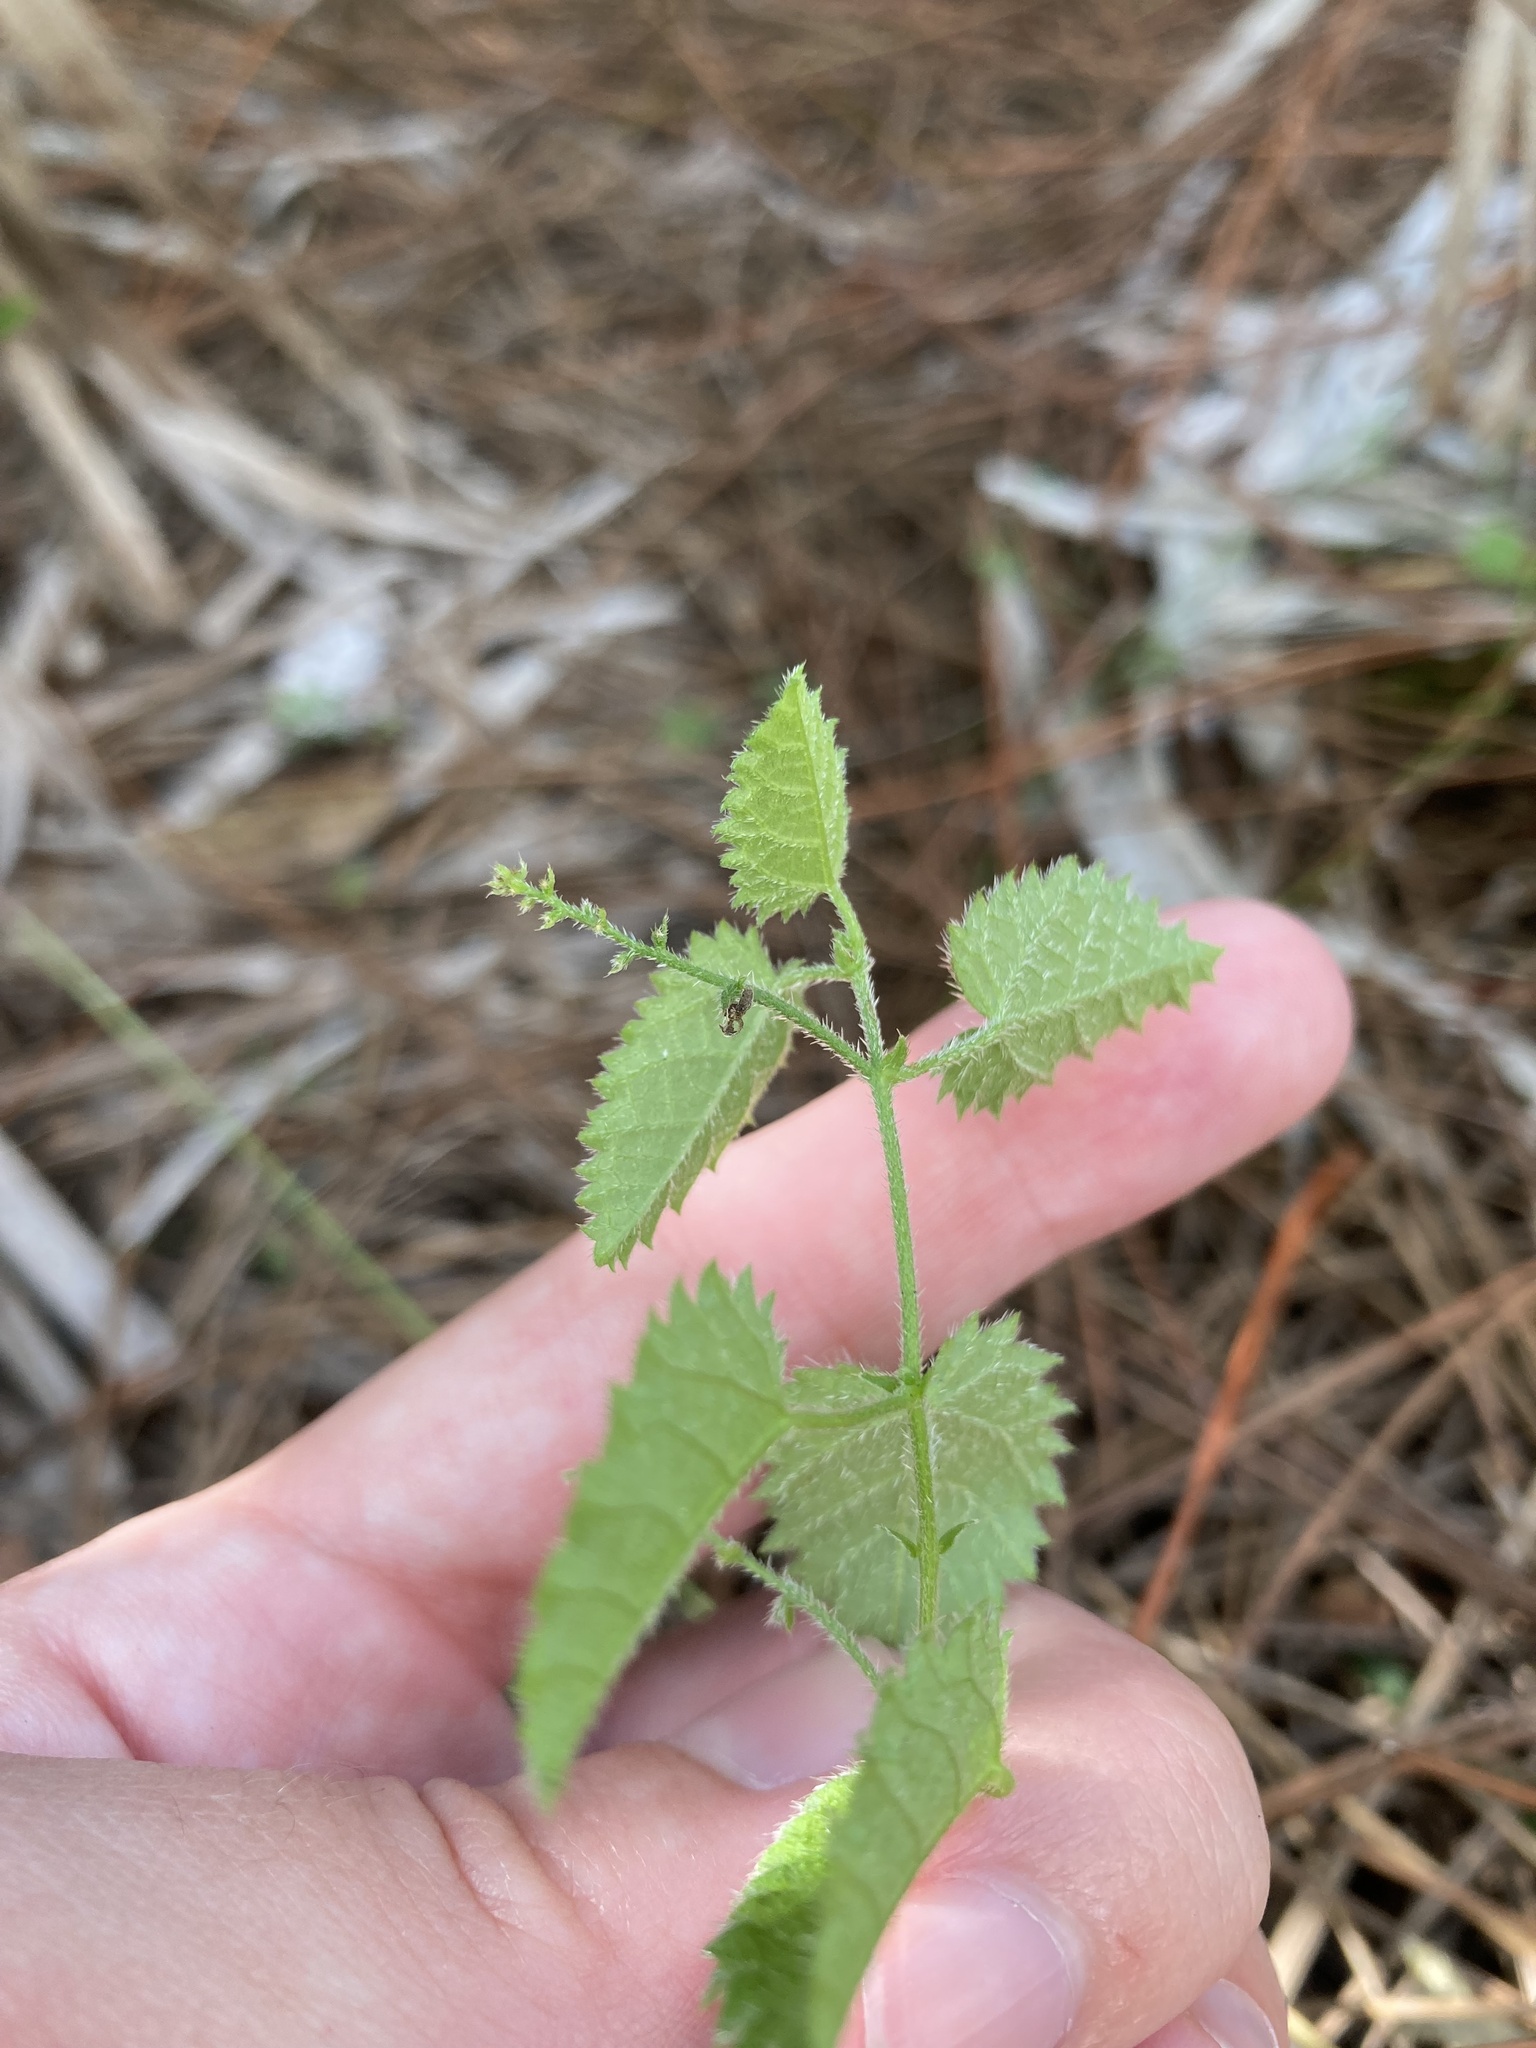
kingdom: Plantae
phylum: Tracheophyta
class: Magnoliopsida
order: Malpighiales
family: Euphorbiaceae
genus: Tragia
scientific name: Tragia saxicola
